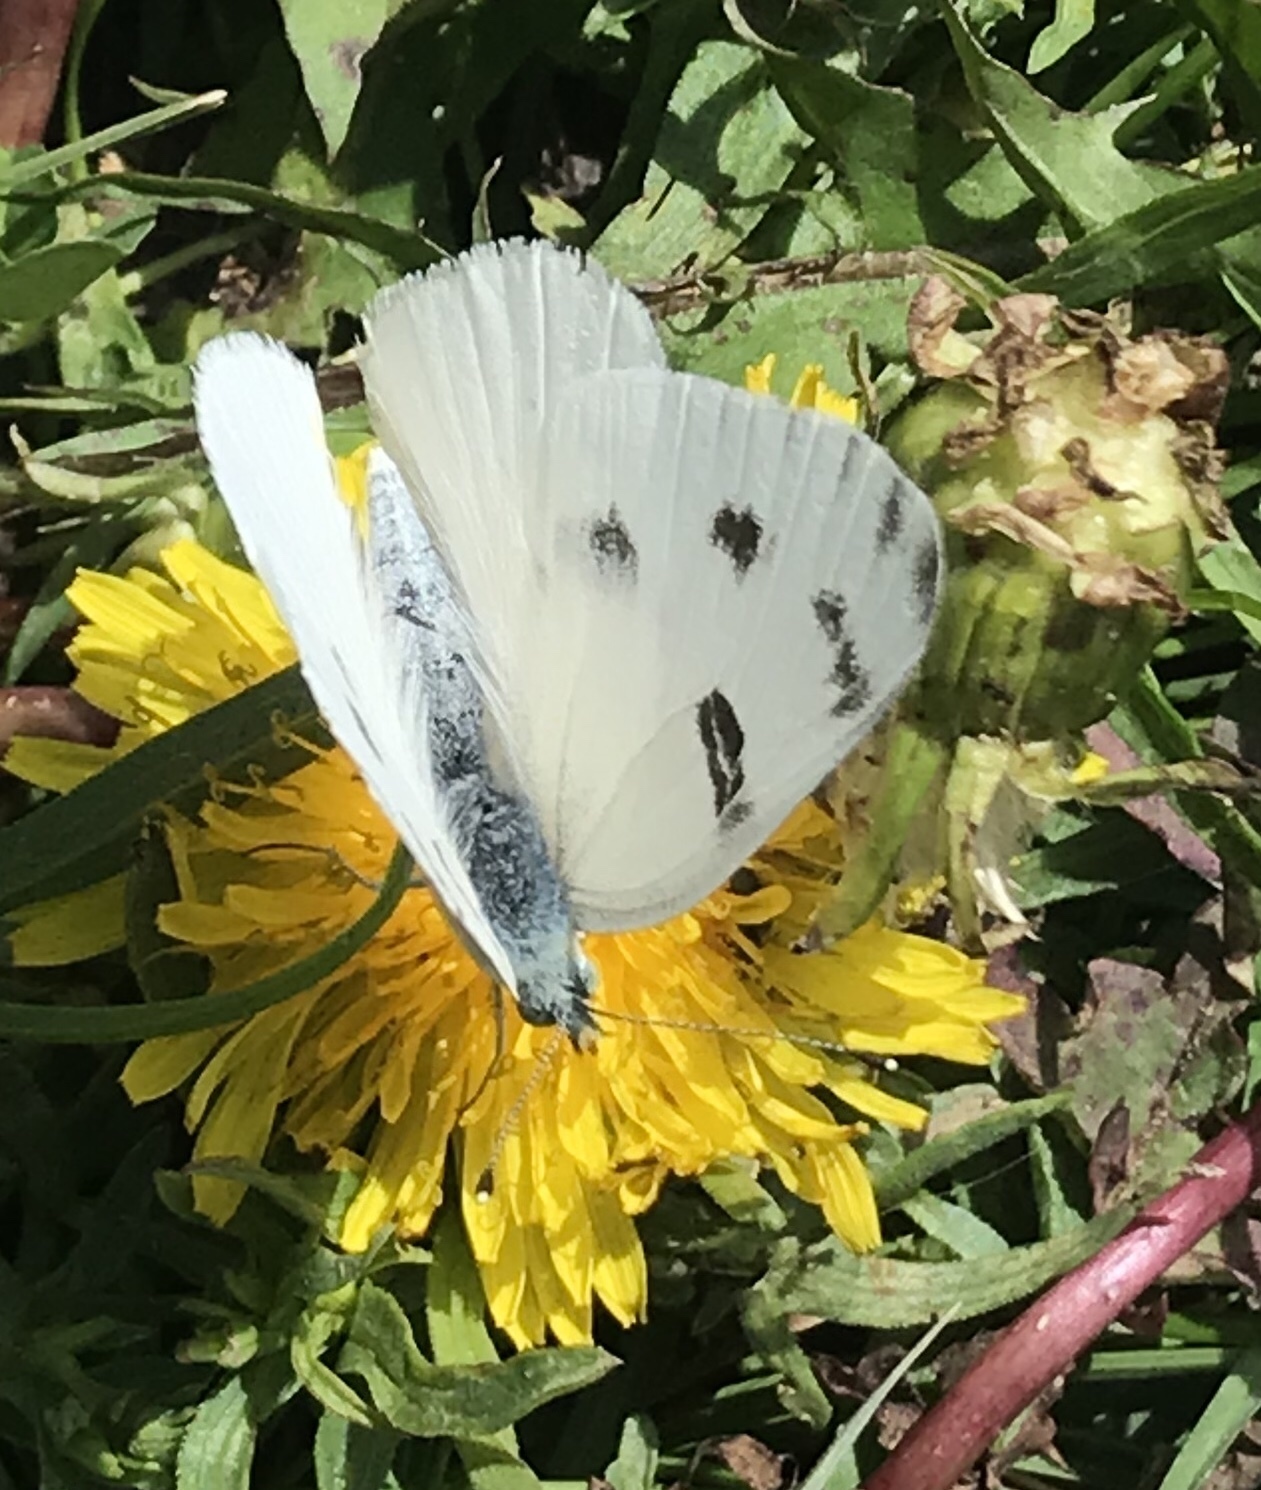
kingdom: Animalia
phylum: Arthropoda
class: Insecta
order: Lepidoptera
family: Pieridae
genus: Pontia
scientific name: Pontia protodice
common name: Checkered white
